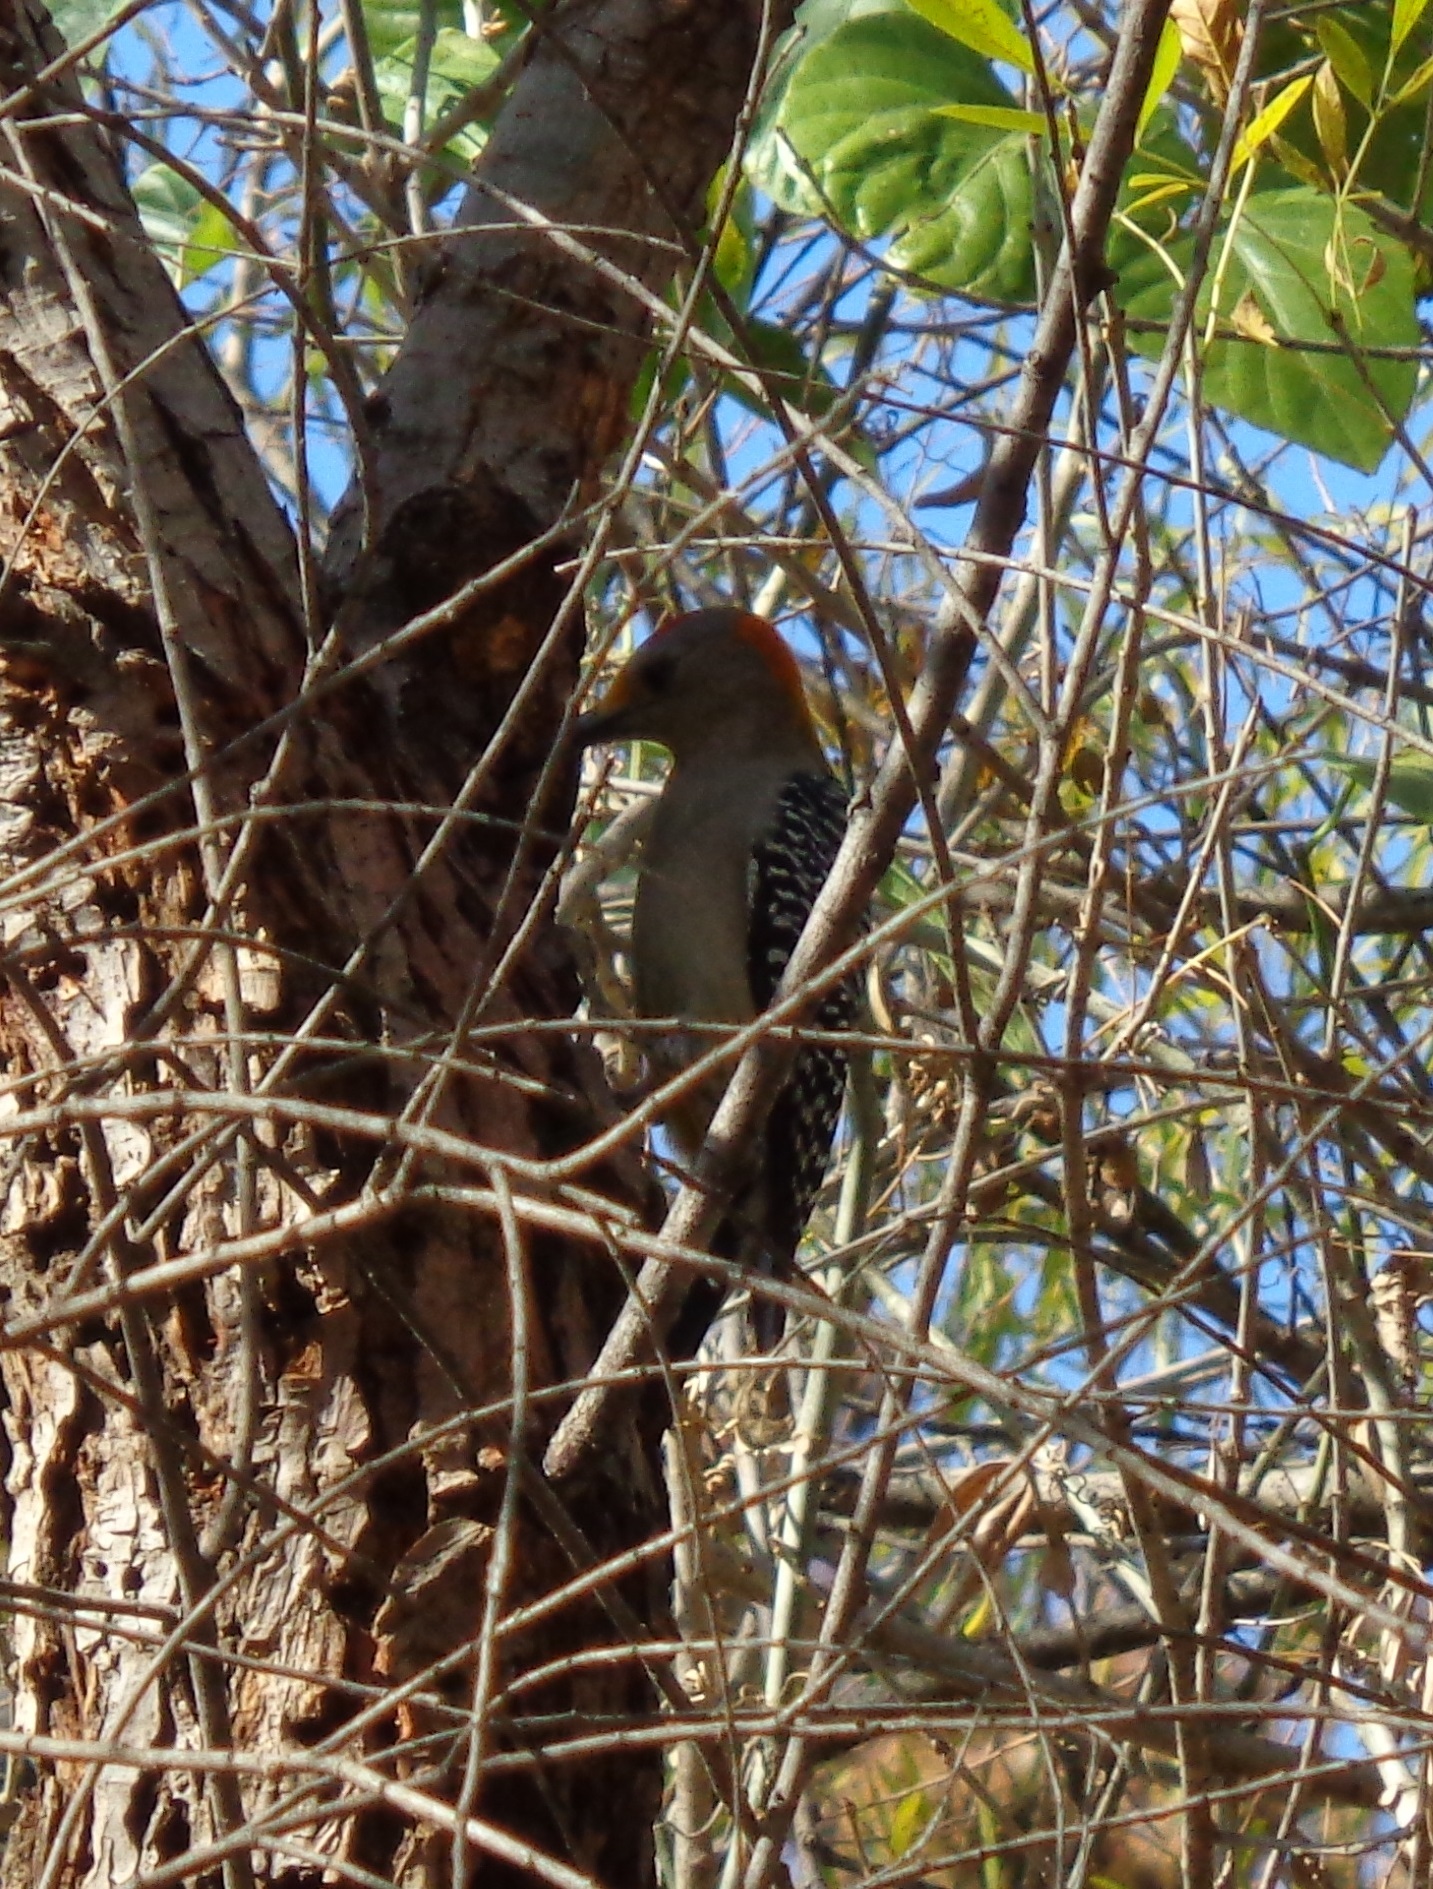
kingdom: Animalia
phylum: Chordata
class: Aves
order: Piciformes
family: Picidae
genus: Melanerpes
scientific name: Melanerpes aurifrons
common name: Golden-fronted woodpecker
